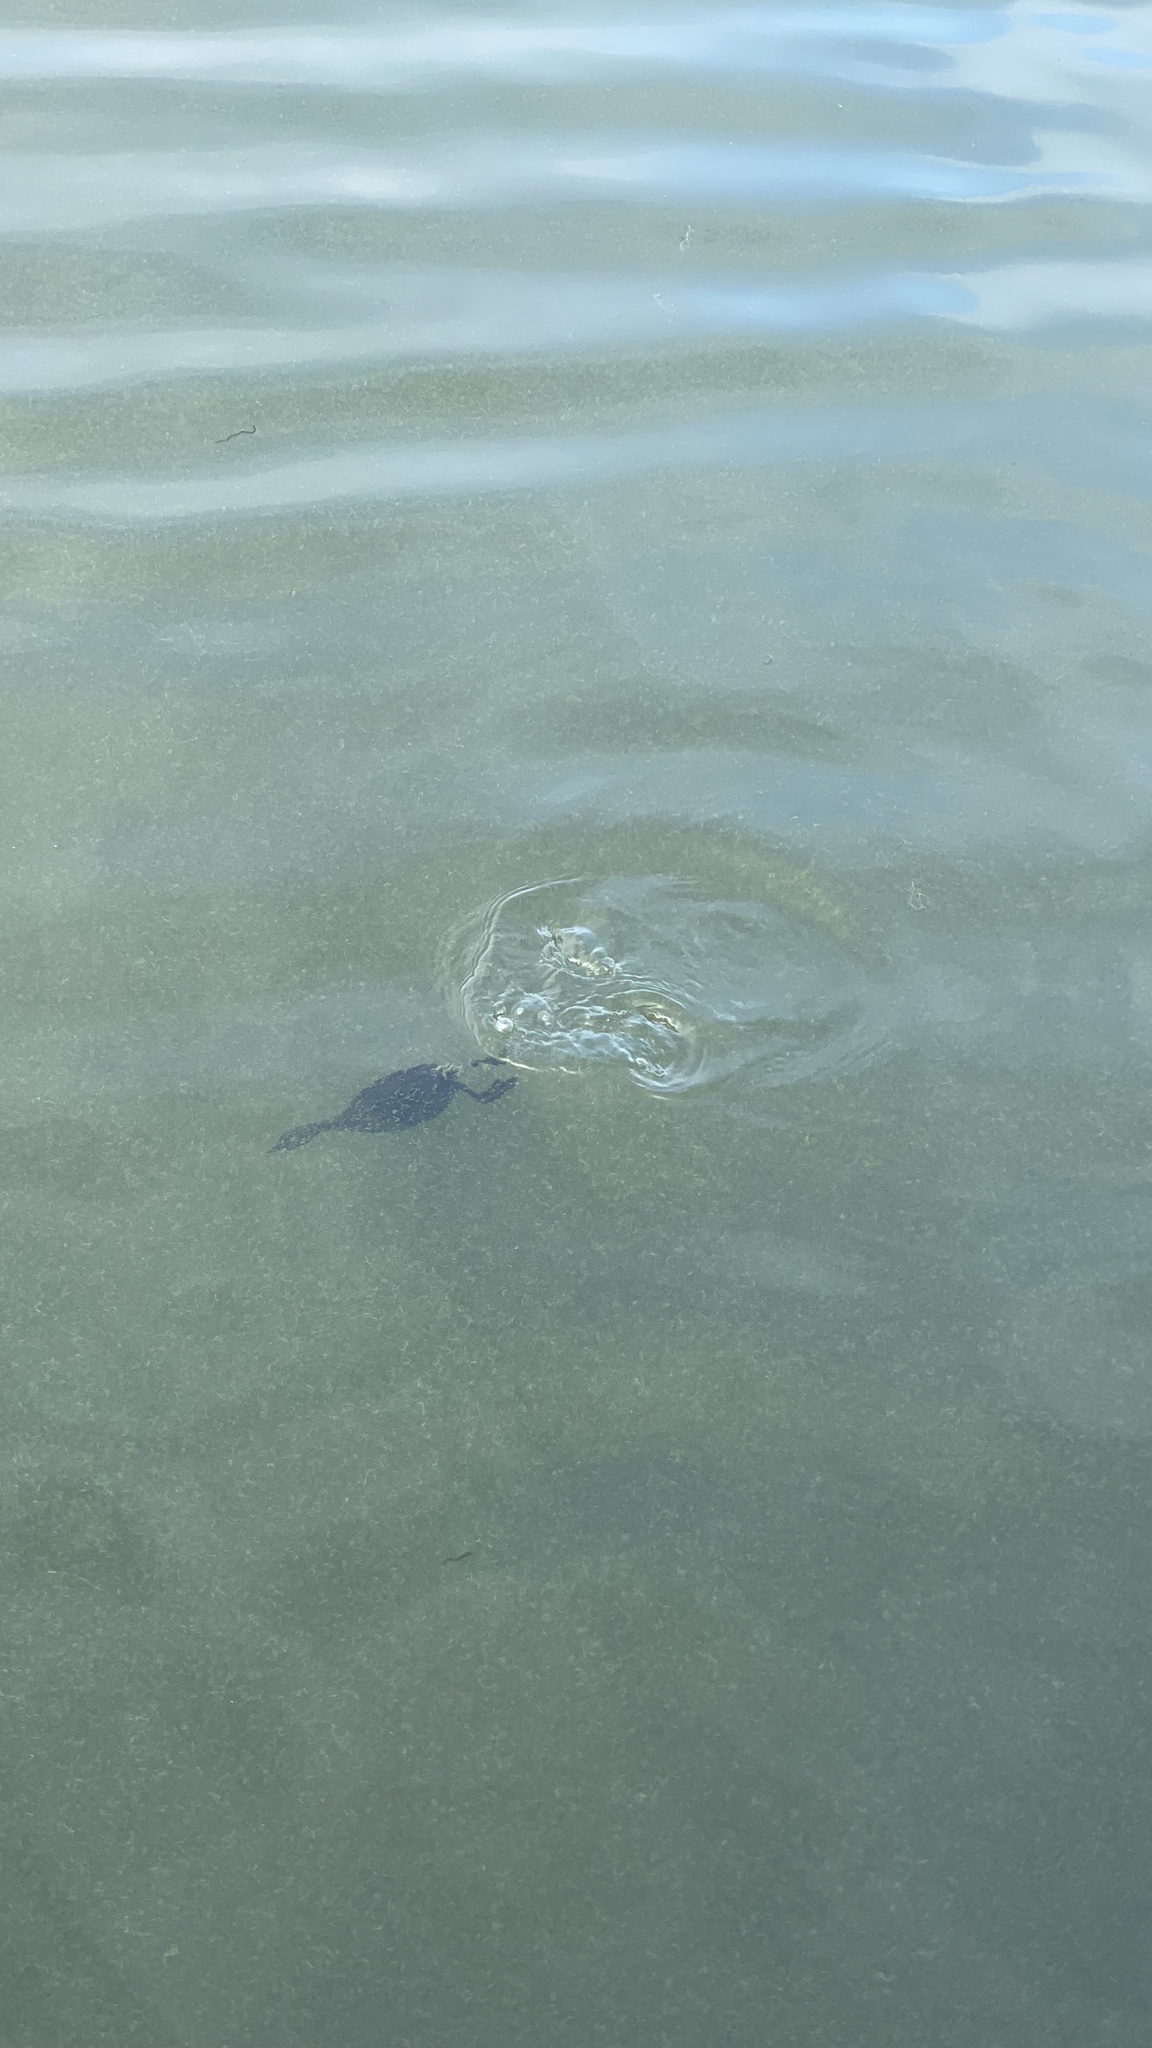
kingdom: Animalia
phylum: Chordata
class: Aves
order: Podicipediformes
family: Podicipedidae
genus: Podiceps
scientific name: Podiceps cristatus
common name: Great crested grebe
